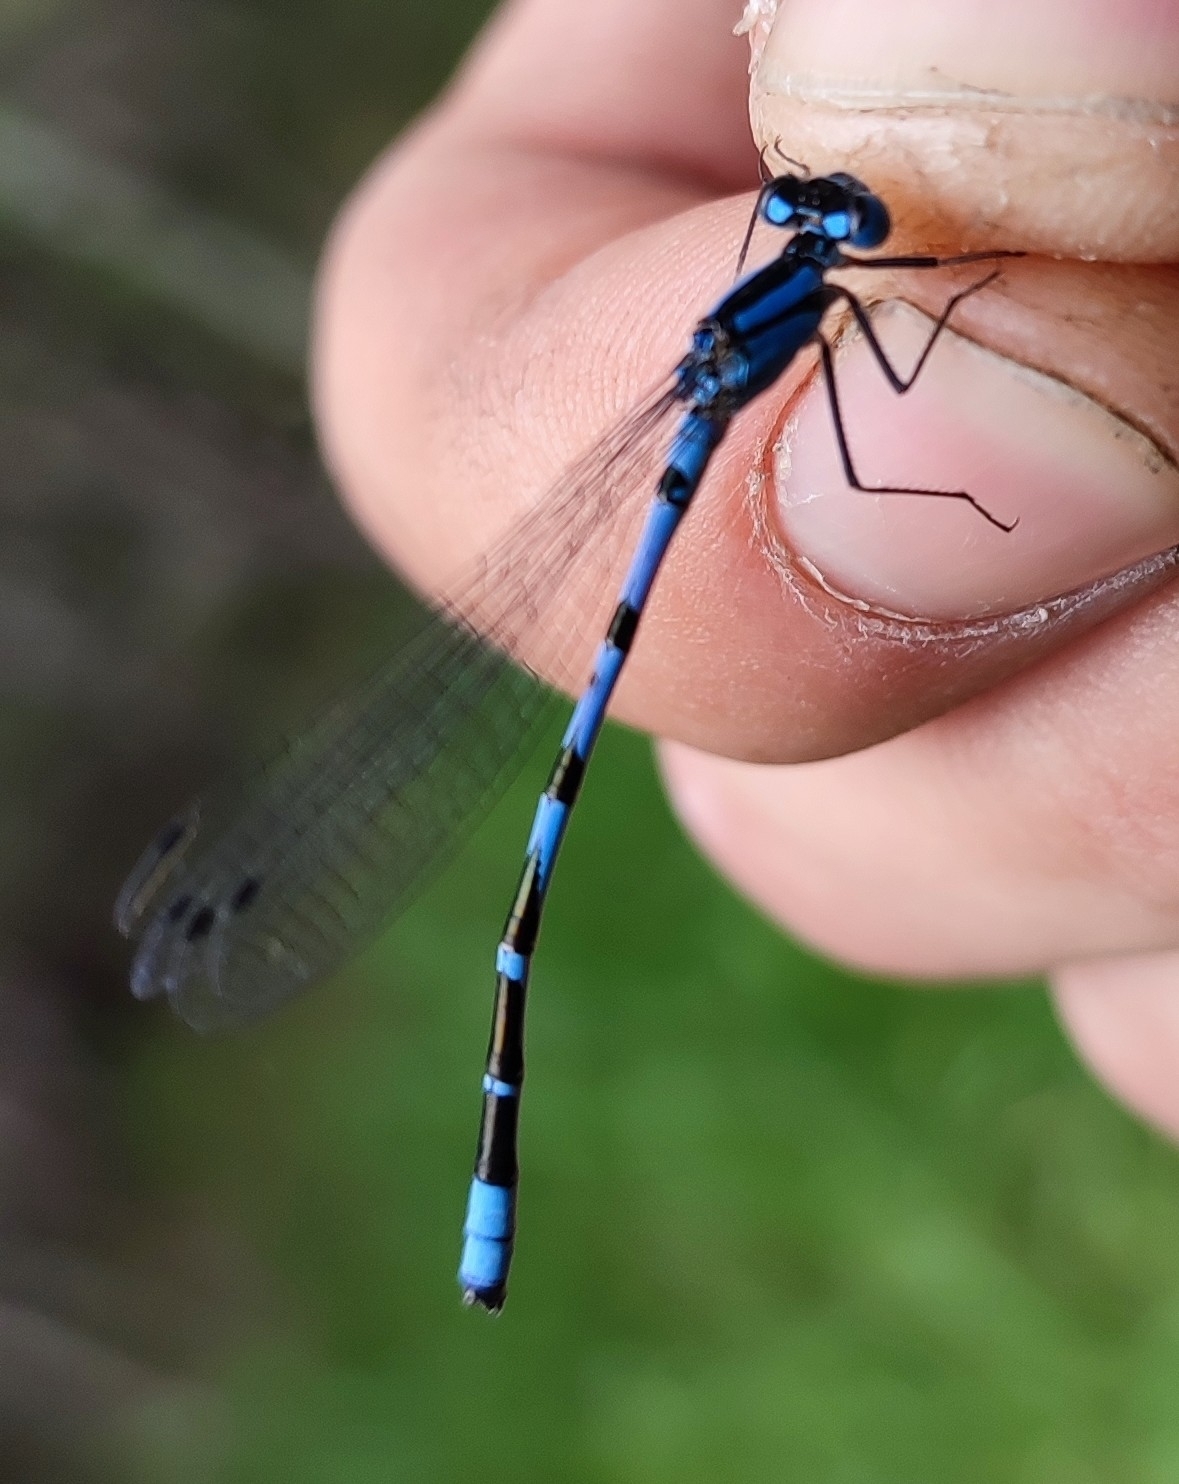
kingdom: Animalia
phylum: Arthropoda
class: Insecta
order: Odonata
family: Coenagrionidae
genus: Enallagma
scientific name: Enallagma cyathigerum
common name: Common blue damselfly
